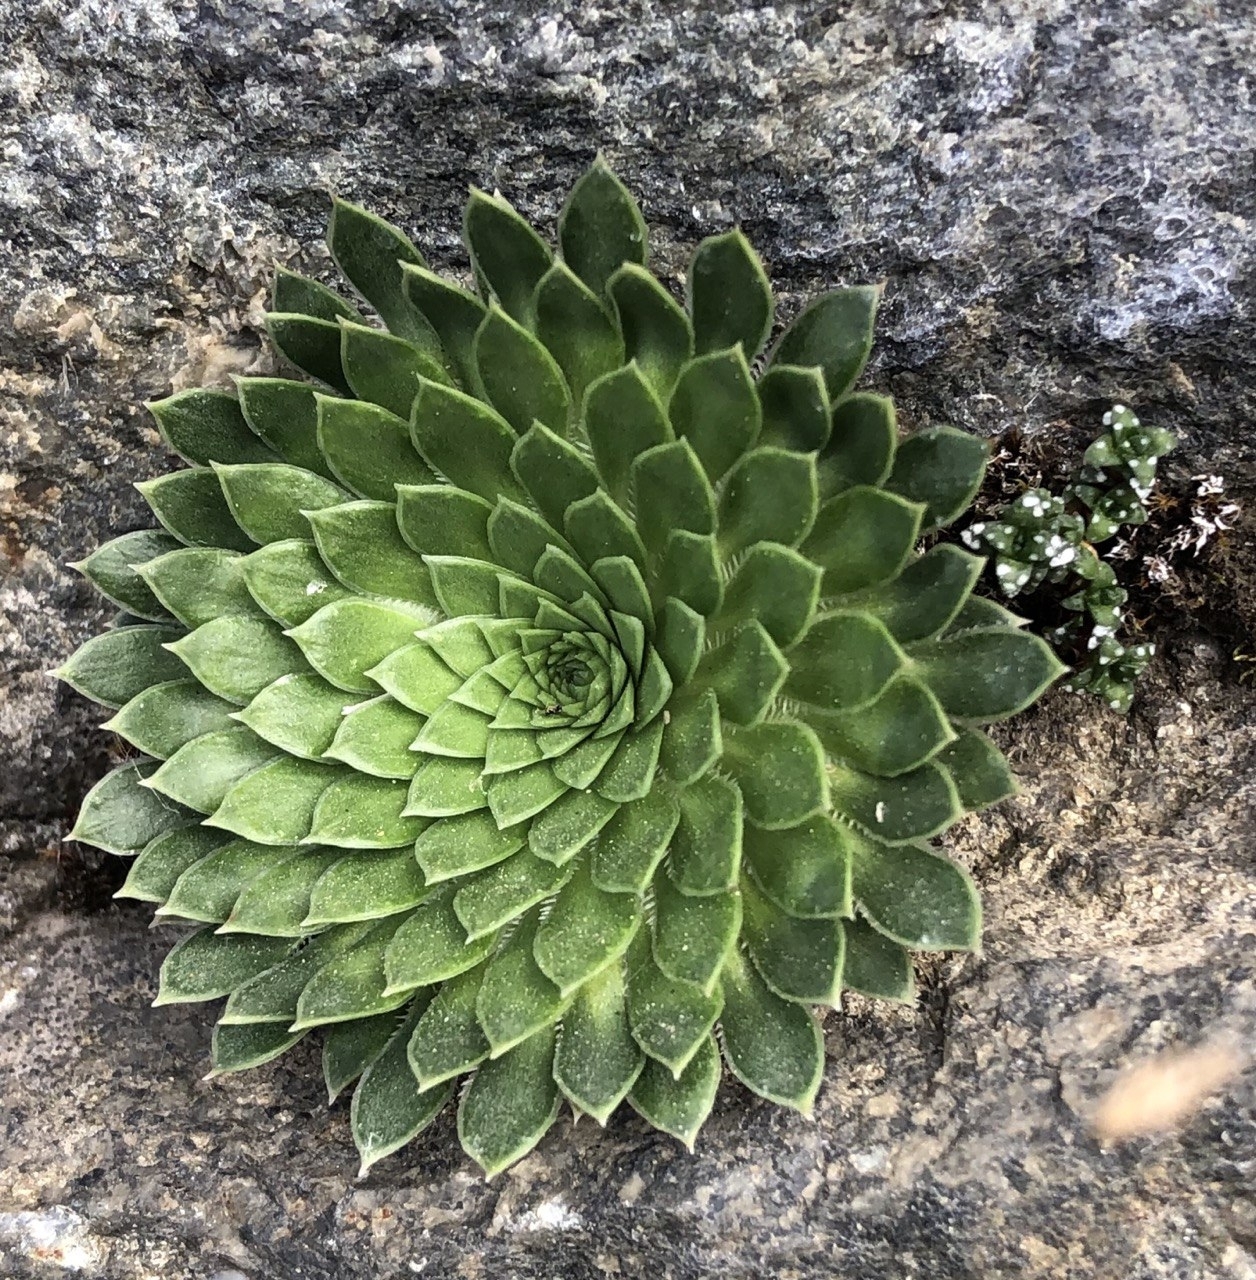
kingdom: Plantae
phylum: Tracheophyta
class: Magnoliopsida
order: Saxifragales
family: Saxifragaceae
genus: Saxifraga
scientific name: Saxifraga florulenta
